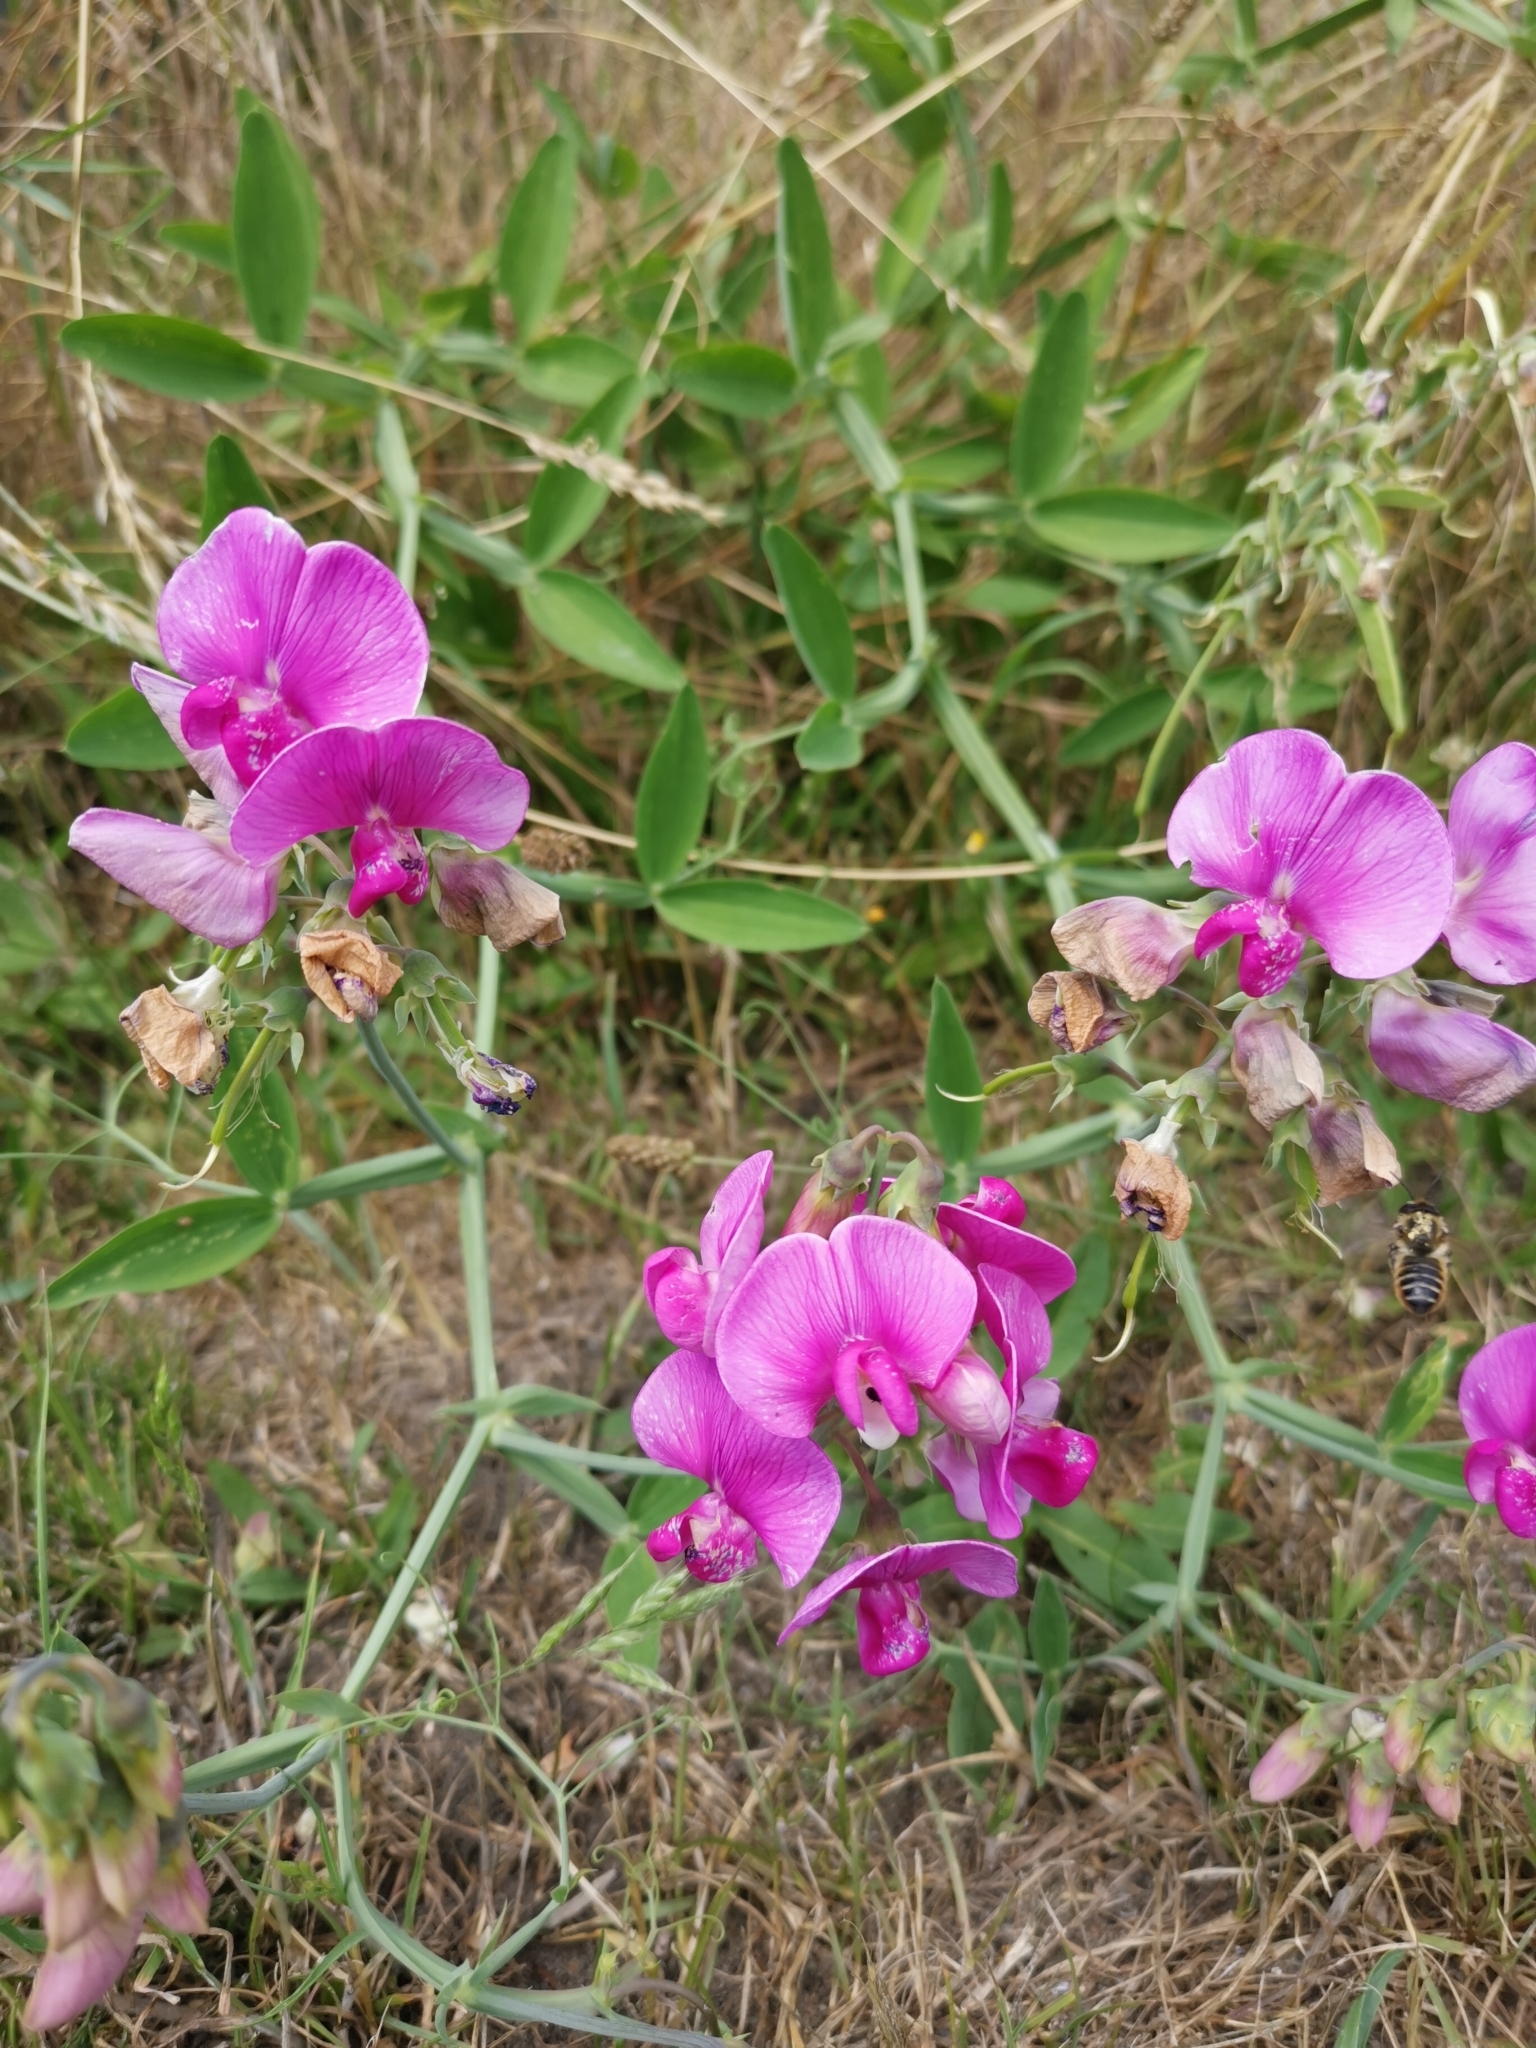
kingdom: Plantae
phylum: Tracheophyta
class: Magnoliopsida
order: Fabales
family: Fabaceae
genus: Lathyrus
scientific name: Lathyrus latifolius
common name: Perennial pea
